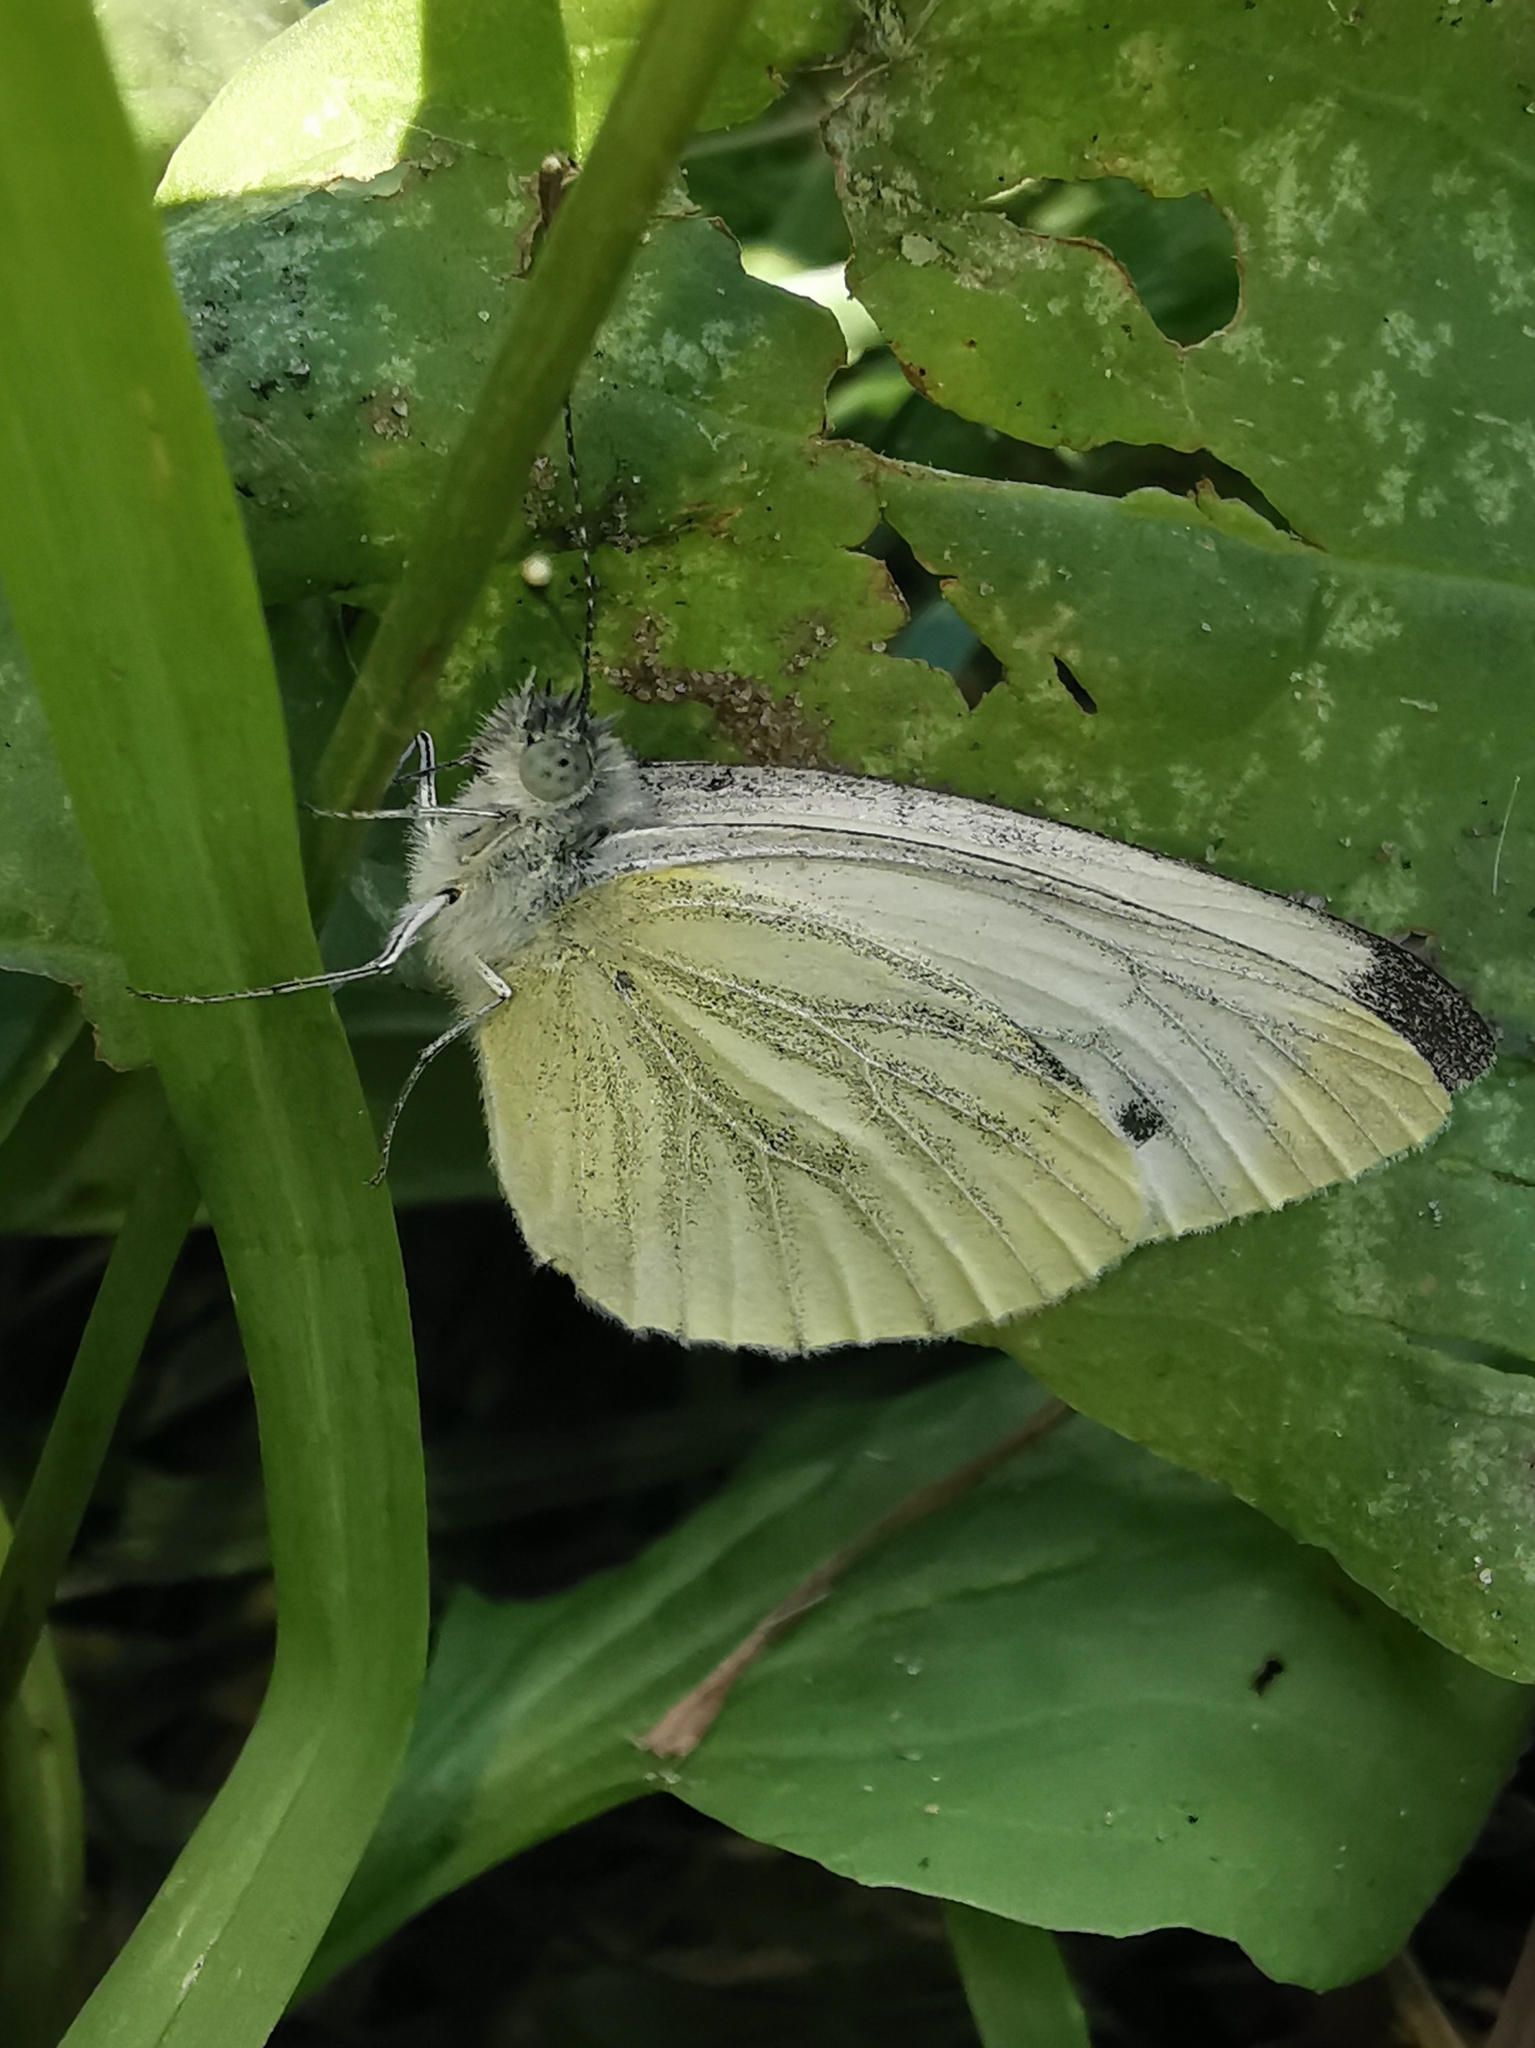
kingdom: Animalia
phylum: Arthropoda
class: Insecta
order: Lepidoptera
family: Pieridae
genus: Pieris
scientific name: Pieris napi
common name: Green-veined white
